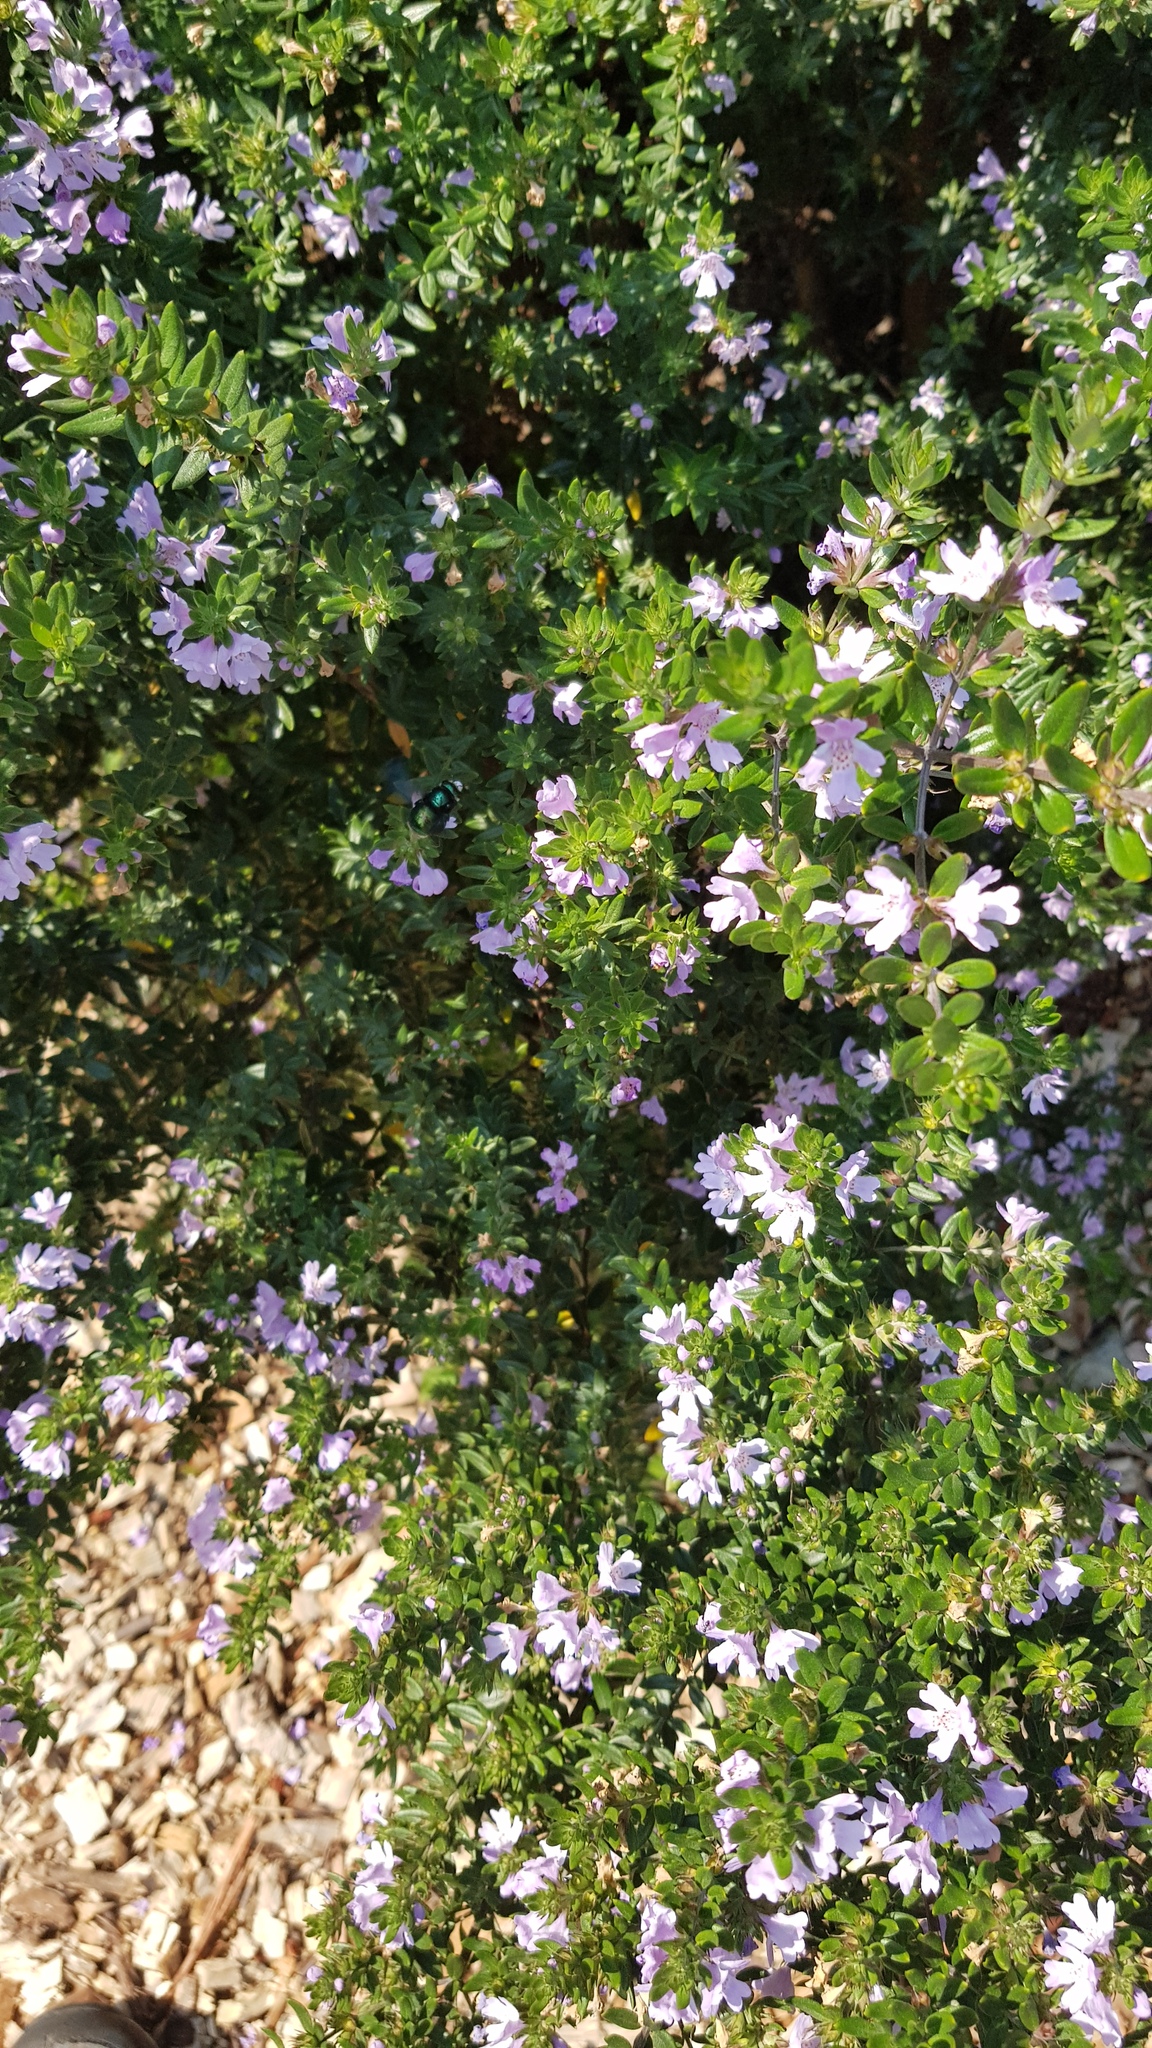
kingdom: Animalia
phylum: Arthropoda
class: Insecta
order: Hymenoptera
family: Apidae
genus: Xylocopa
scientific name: Xylocopa aeratus
